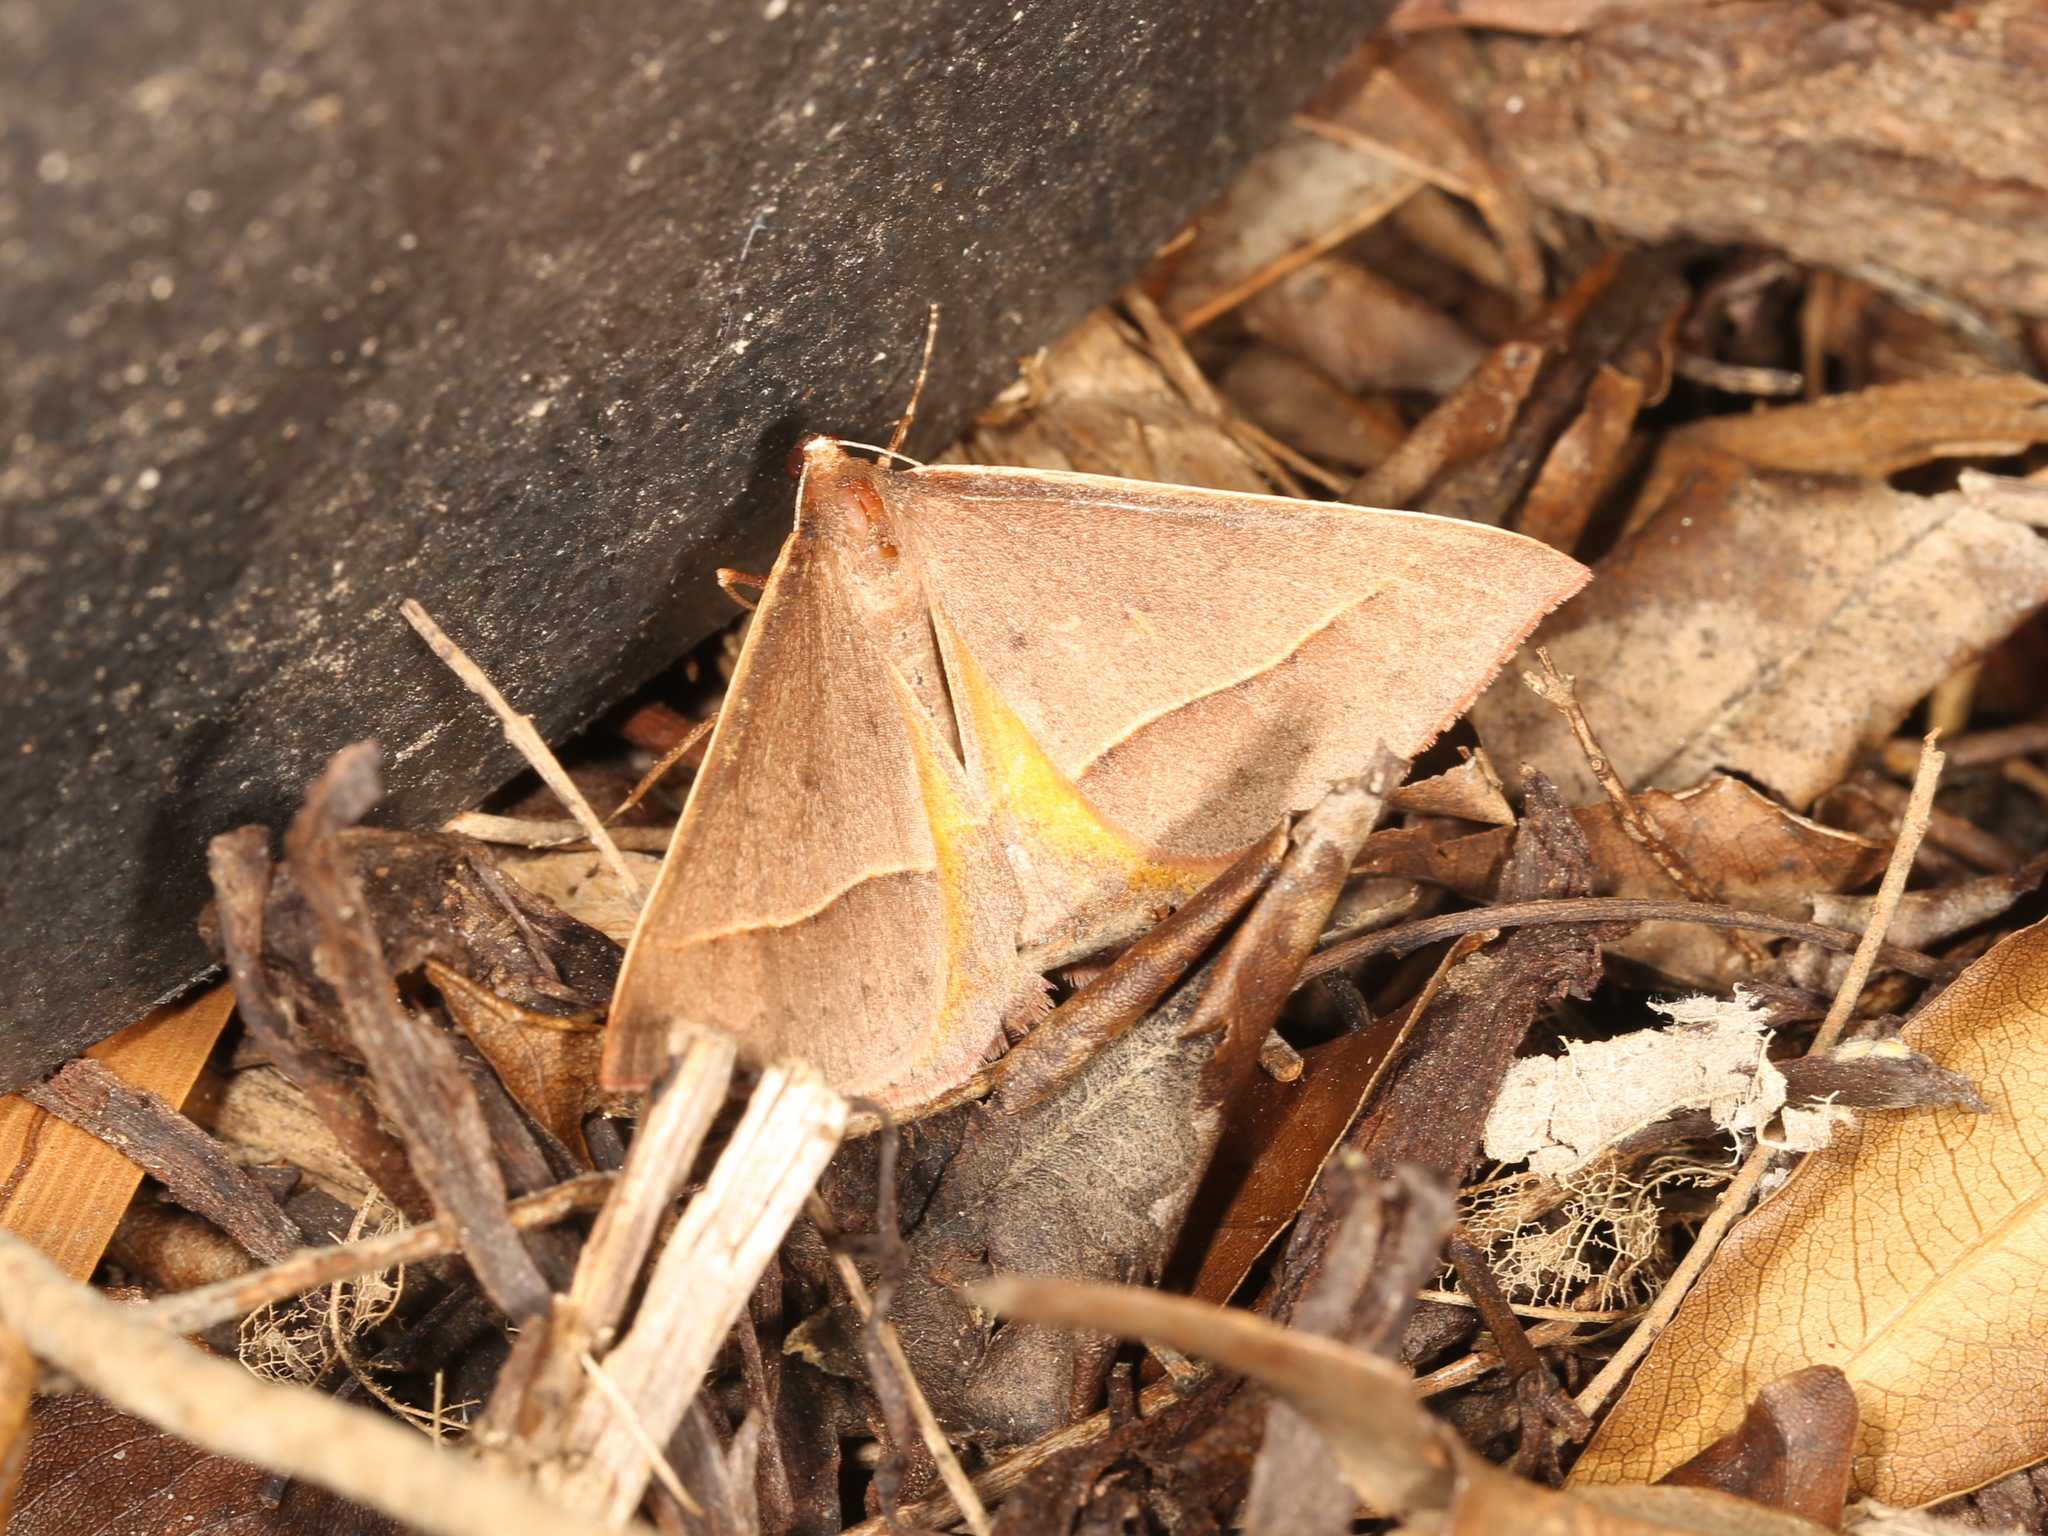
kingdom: Animalia
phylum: Arthropoda
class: Insecta
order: Lepidoptera
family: Geometridae
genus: Epidesmia
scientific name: Epidesmia chilonaria
